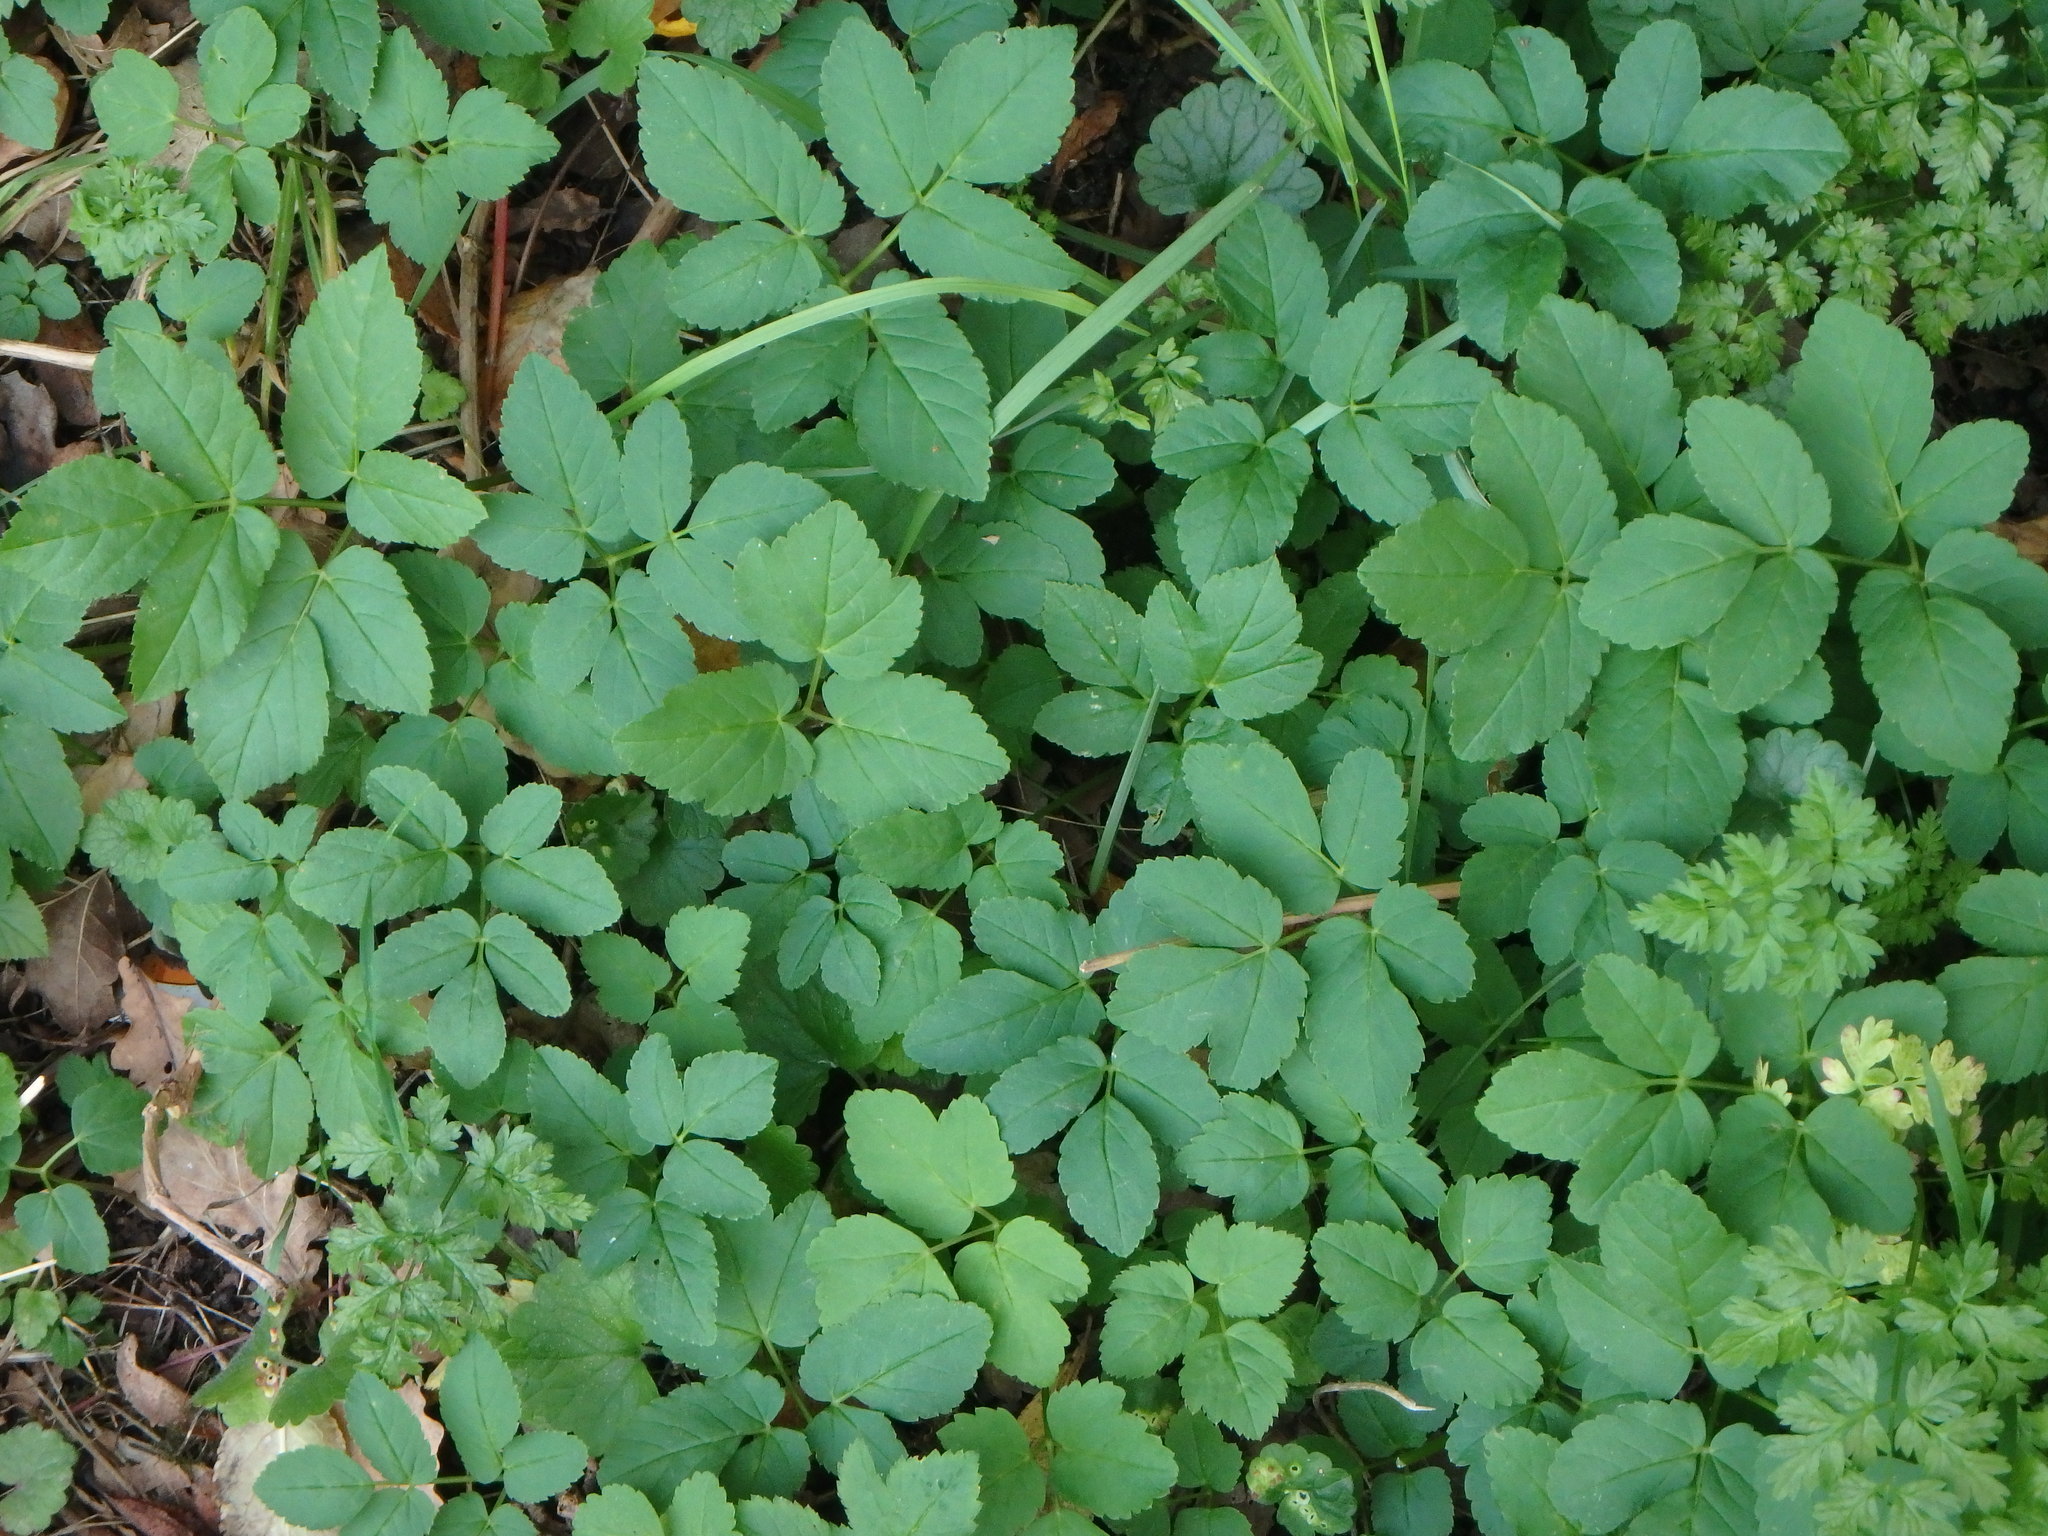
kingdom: Plantae
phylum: Tracheophyta
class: Magnoliopsida
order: Apiales
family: Apiaceae
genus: Aegopodium
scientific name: Aegopodium podagraria
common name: Ground-elder
